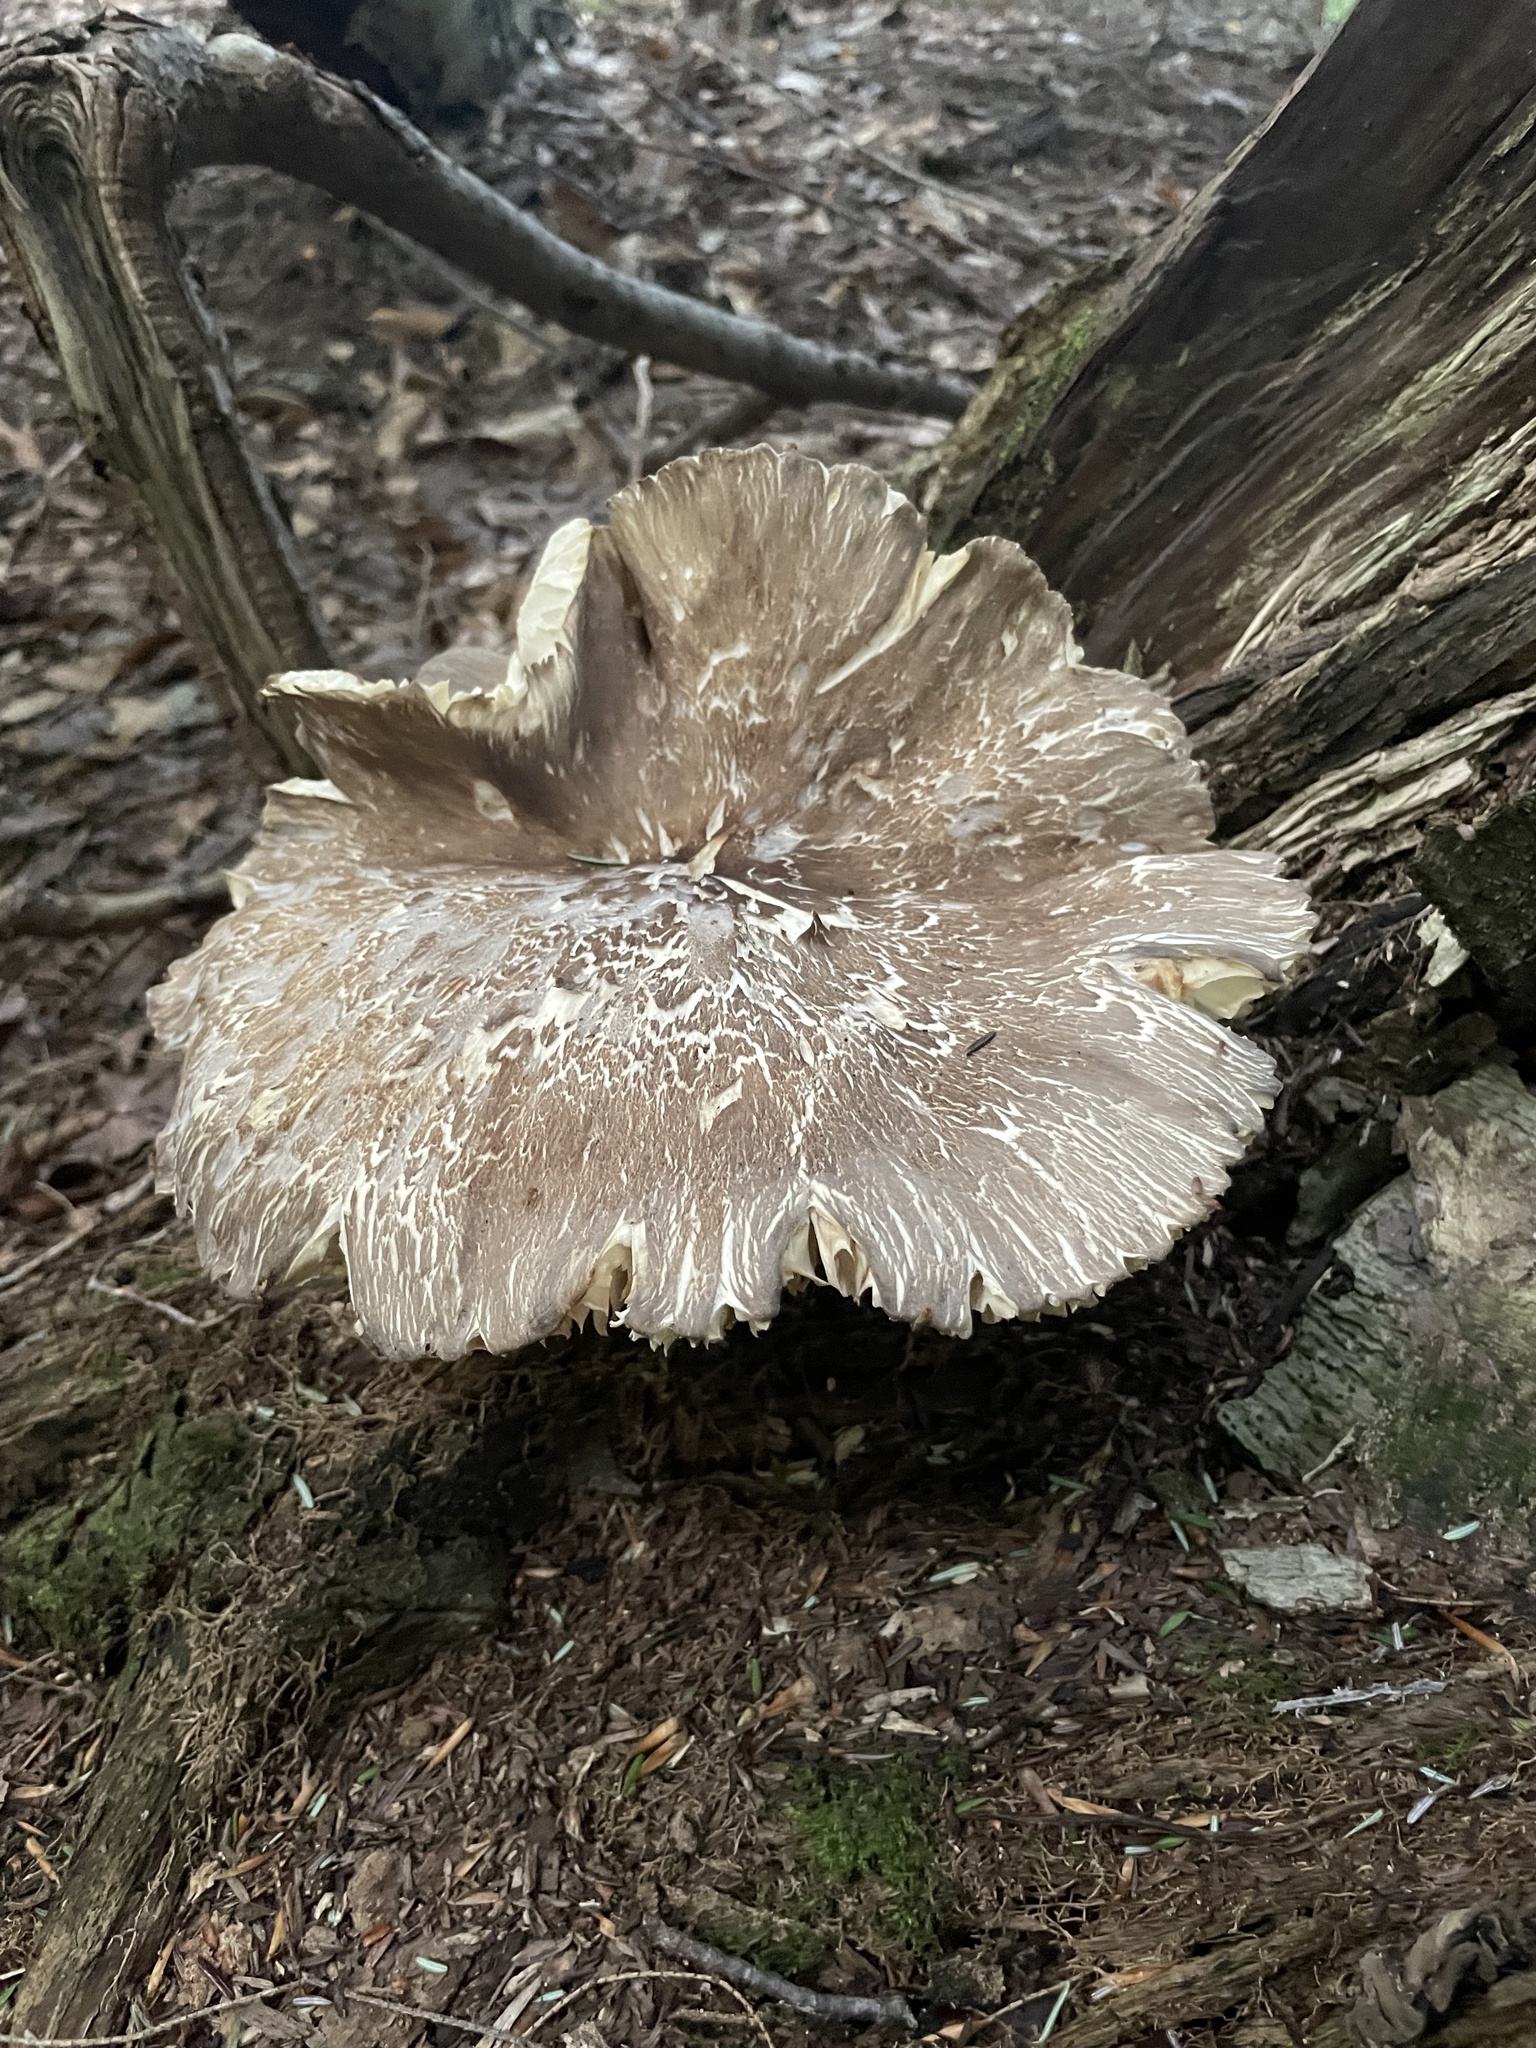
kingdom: Fungi
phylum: Basidiomycota
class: Agaricomycetes
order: Agaricales
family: Tricholomataceae
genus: Megacollybia
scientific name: Megacollybia rodmanii
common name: Eastern american platterful mushroom
